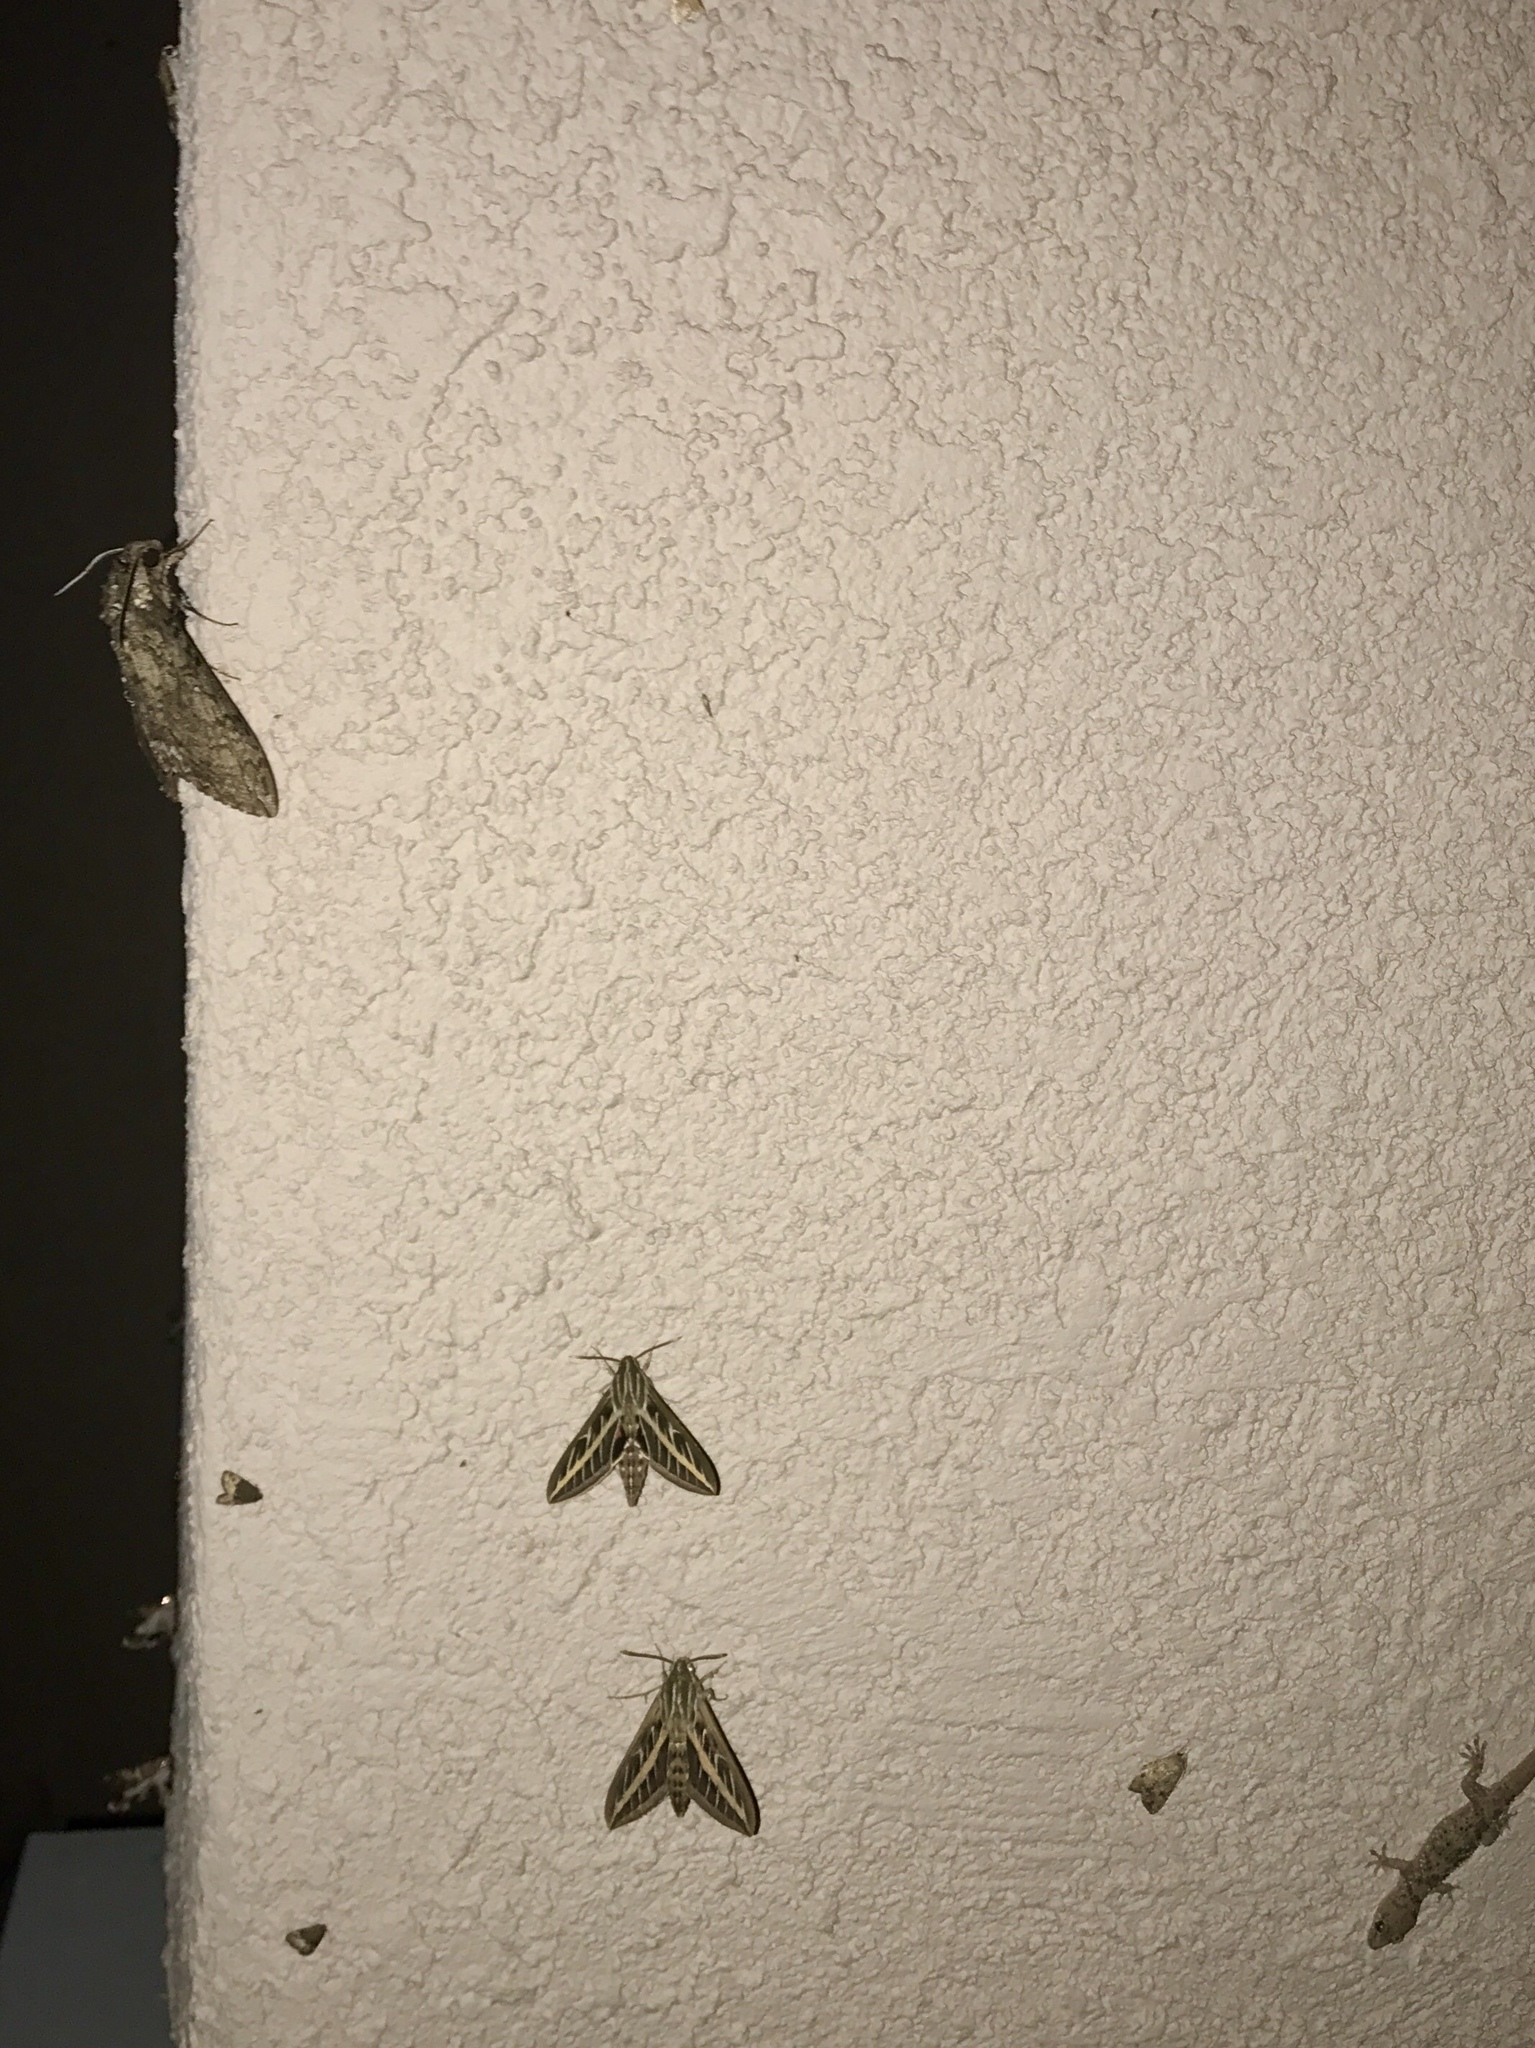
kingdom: Animalia
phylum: Arthropoda
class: Insecta
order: Lepidoptera
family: Sphingidae
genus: Hyles
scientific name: Hyles lineata
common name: White-lined sphinx
